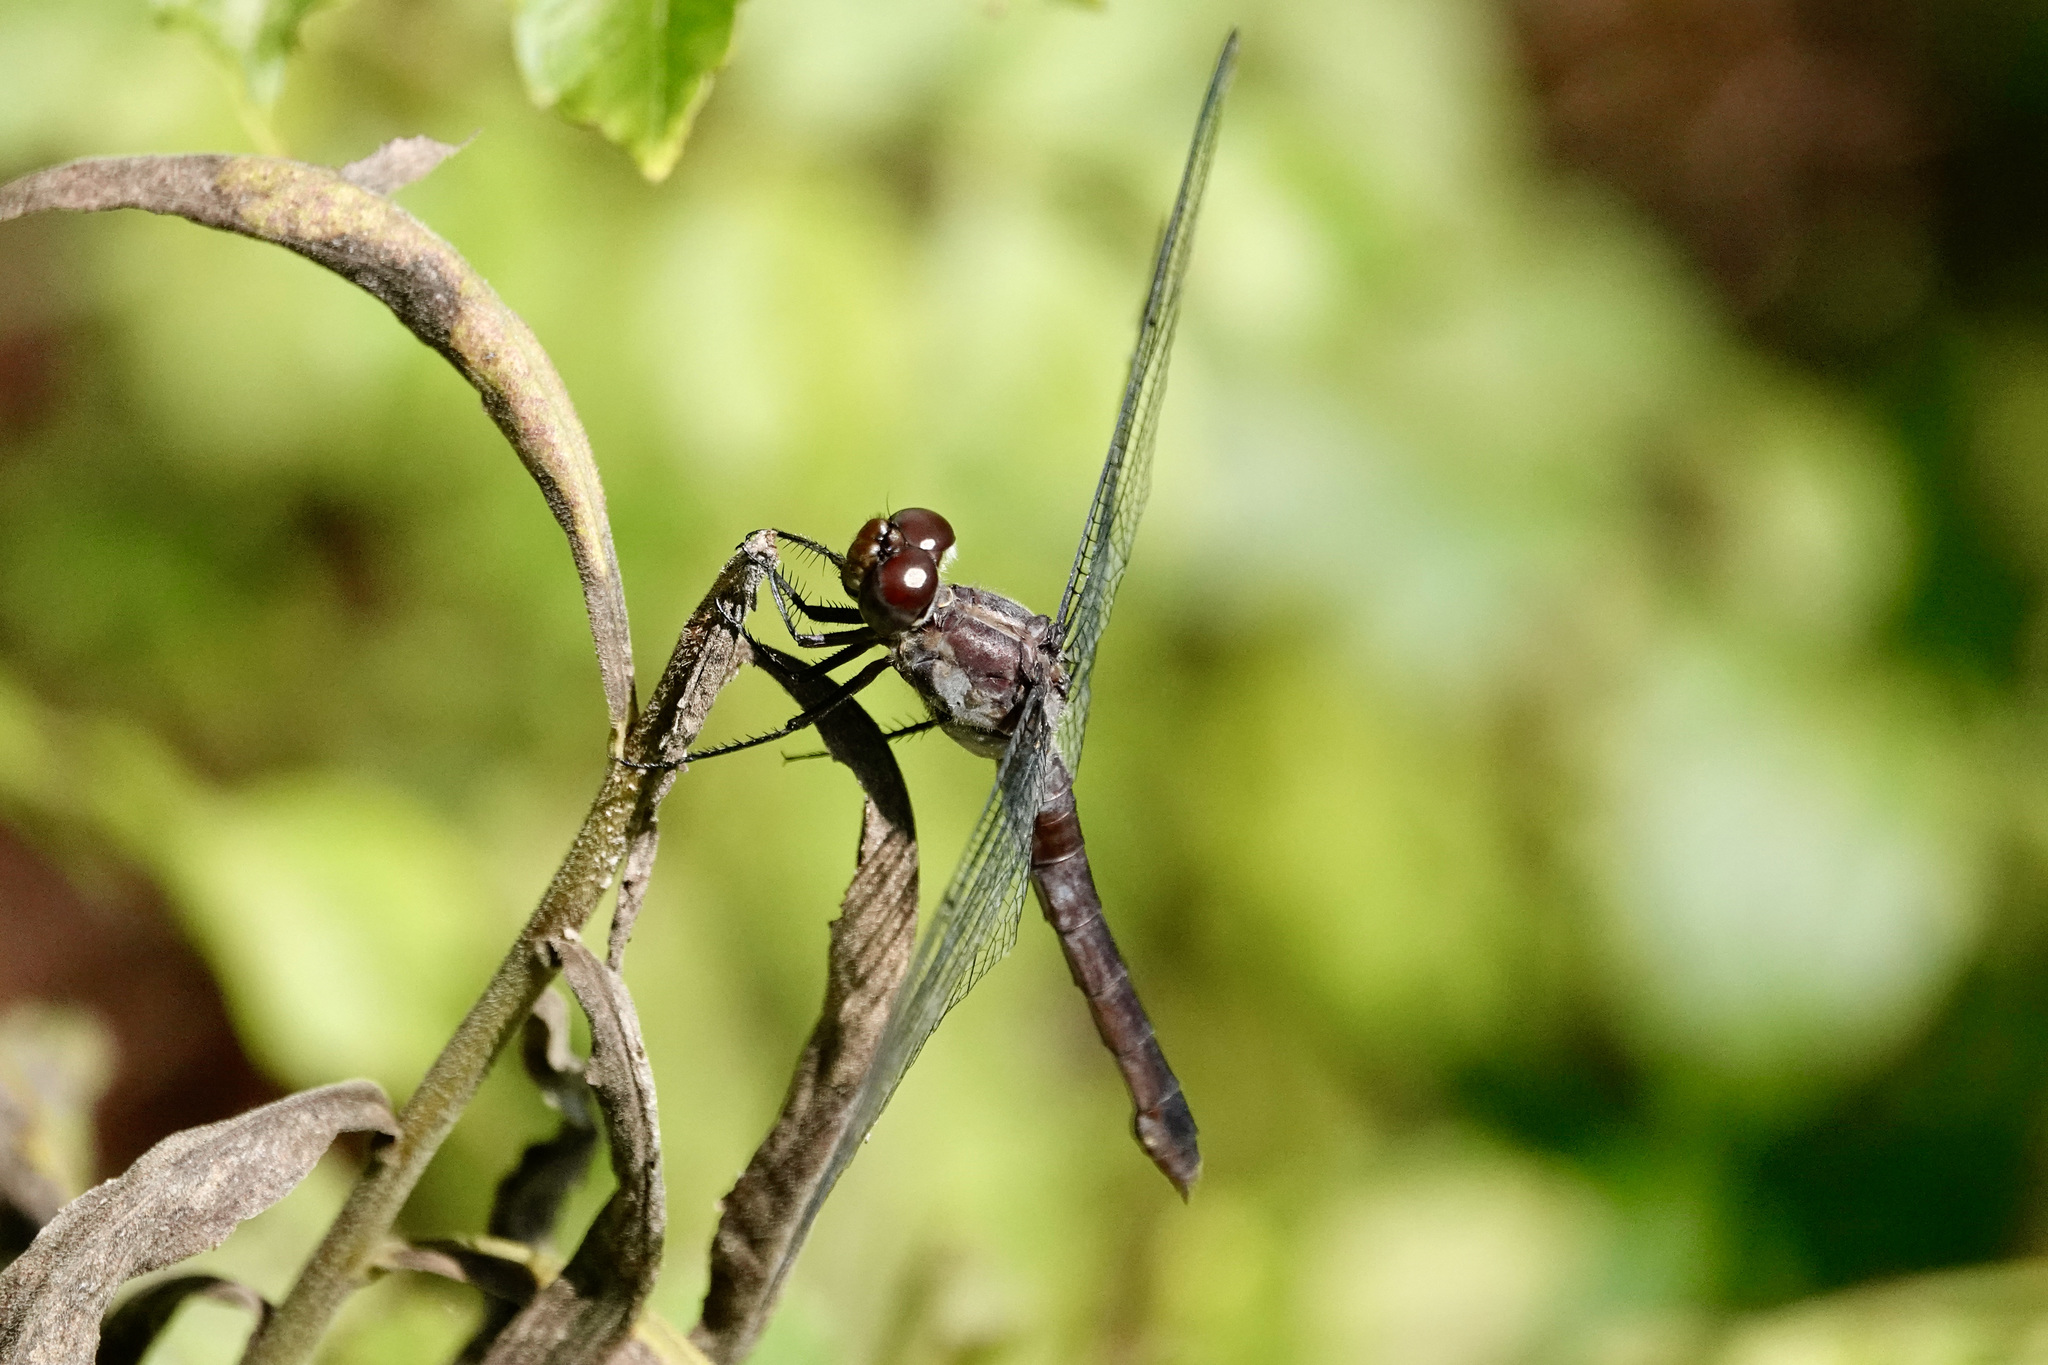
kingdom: Animalia
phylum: Arthropoda
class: Insecta
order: Odonata
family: Libellulidae
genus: Libellula
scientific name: Libellula incesta
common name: Slaty skimmer
